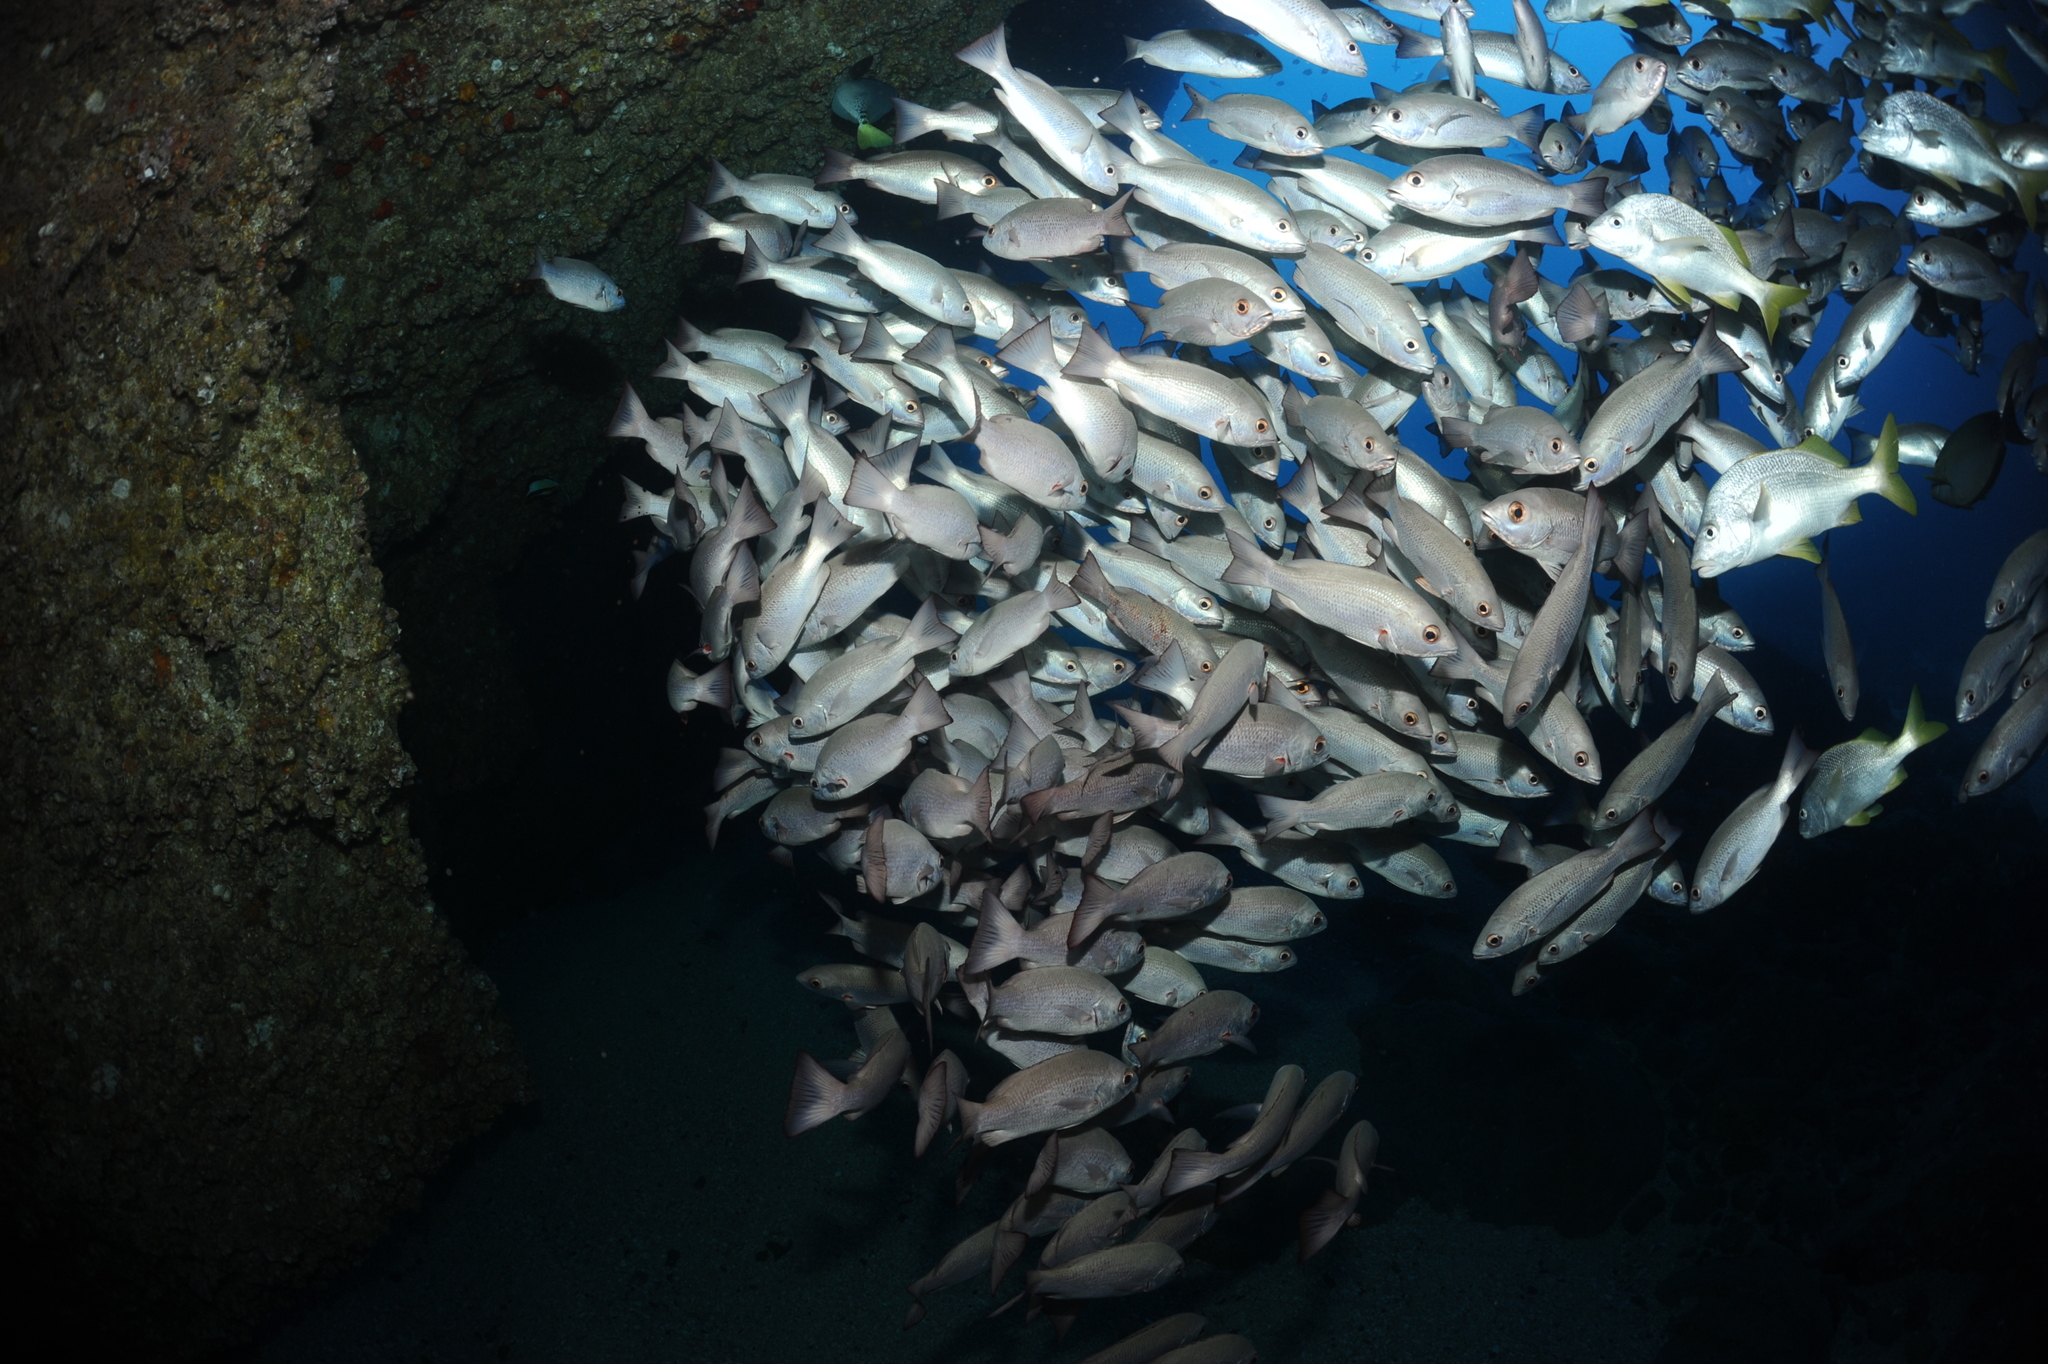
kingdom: Animalia
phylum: Chordata
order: Perciformes
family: Lutjanidae
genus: Lutjanus
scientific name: Lutjanus jordani
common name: Red snapper
